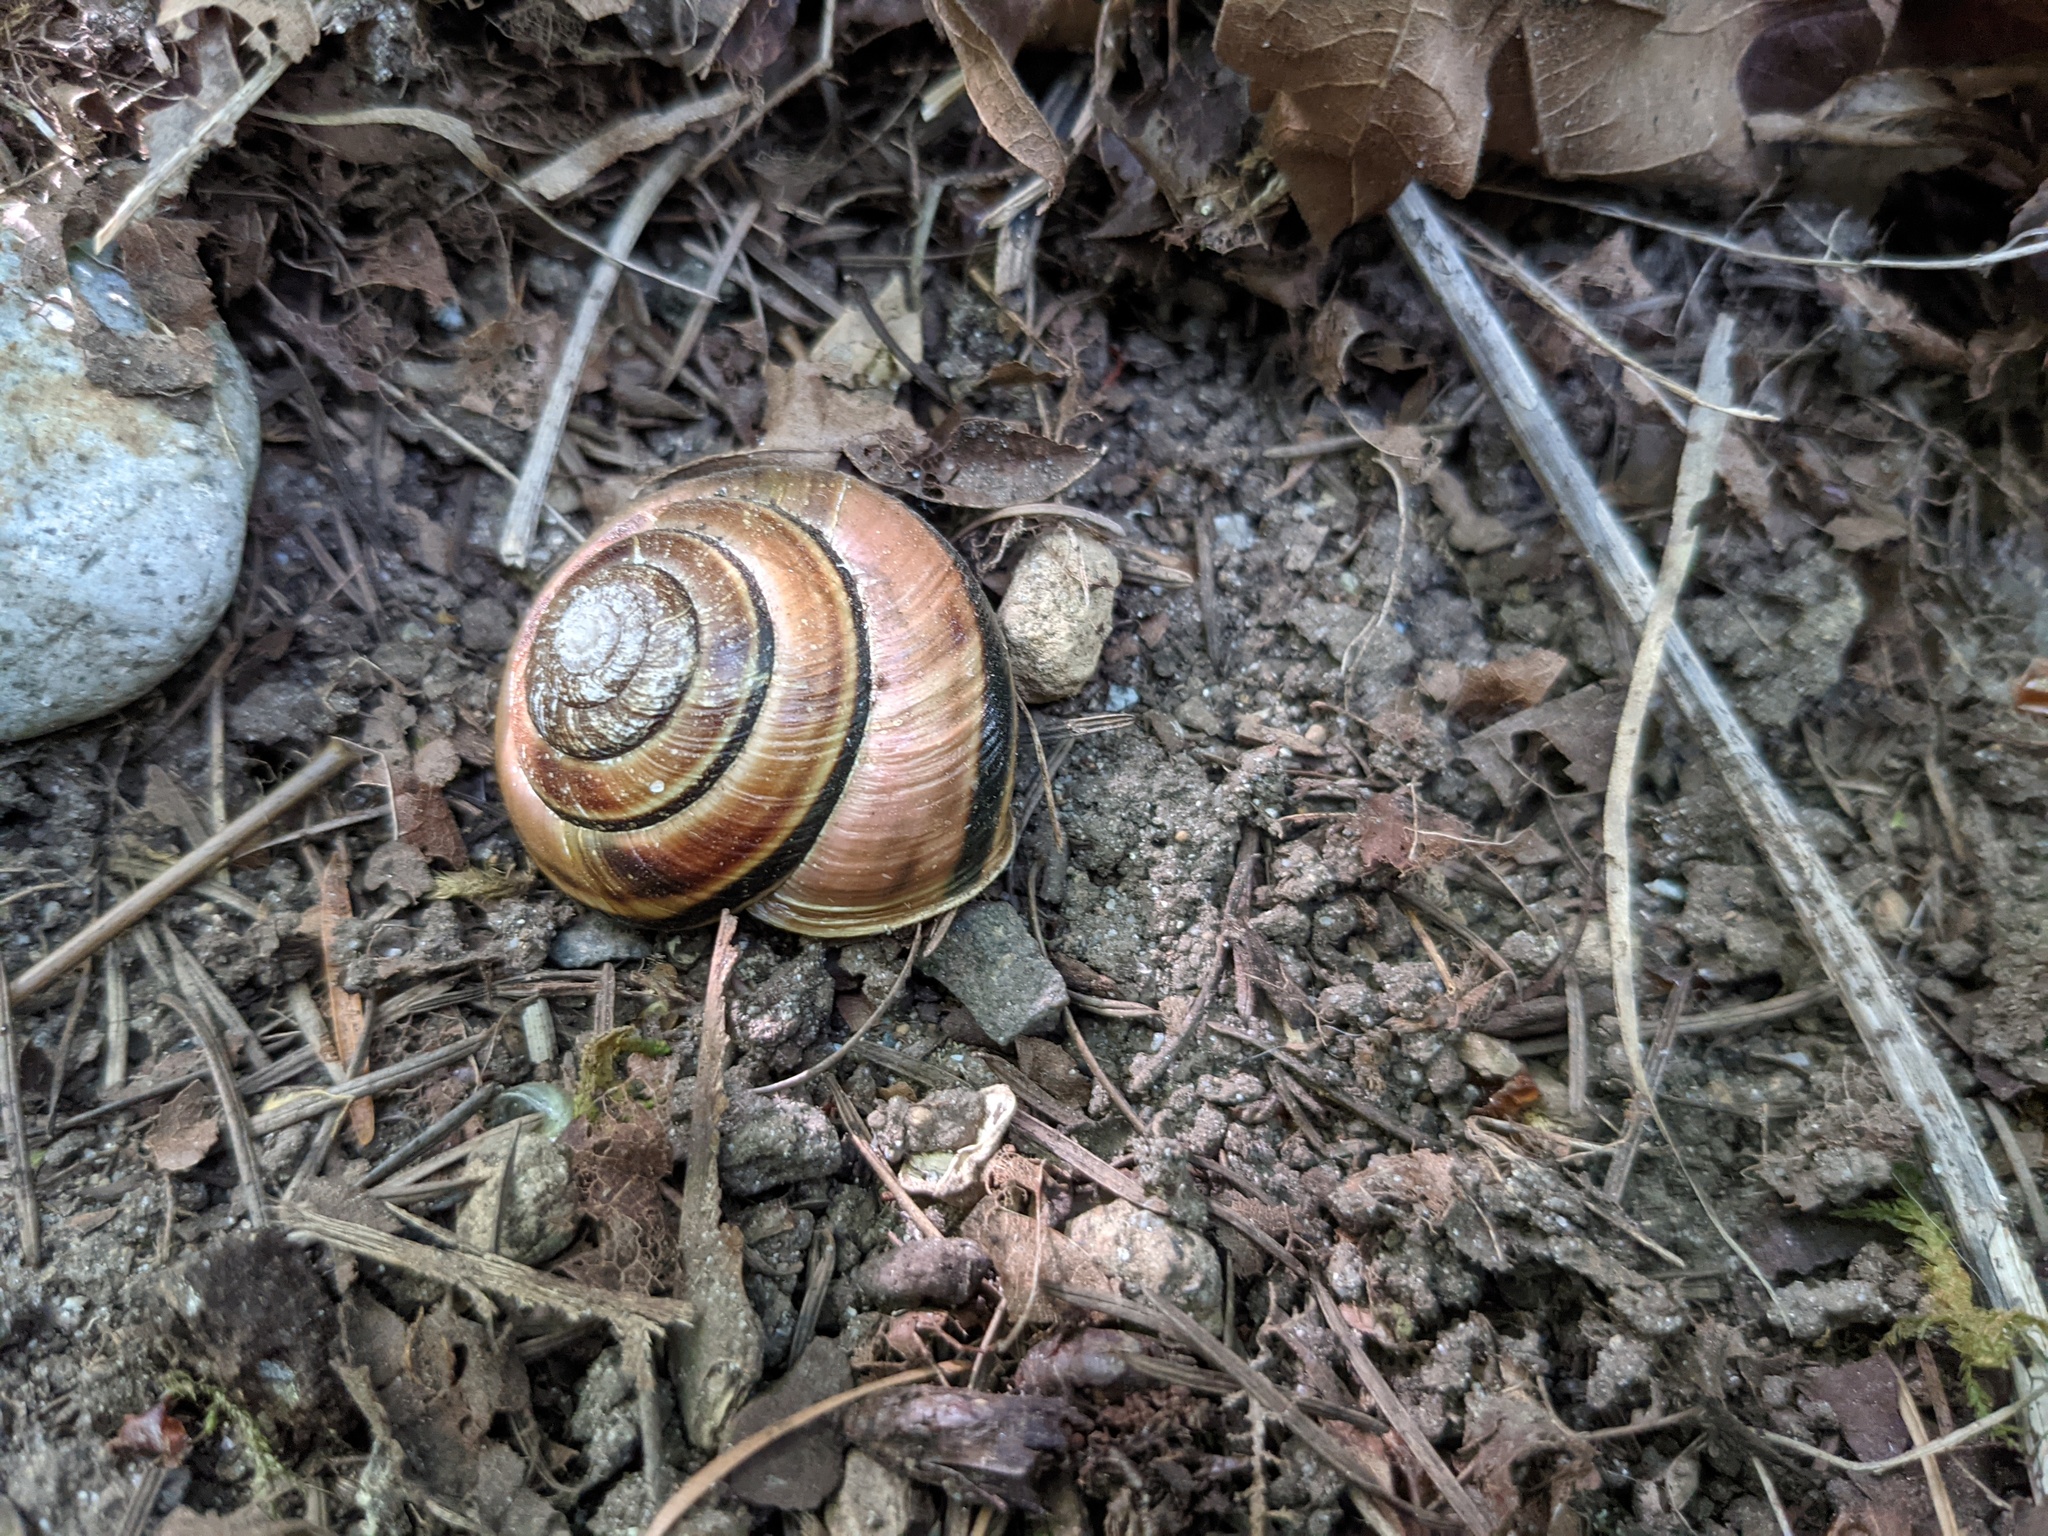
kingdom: Animalia
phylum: Mollusca
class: Gastropoda
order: Stylommatophora
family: Xanthonychidae
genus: Monadenia
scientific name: Monadenia fidelis
